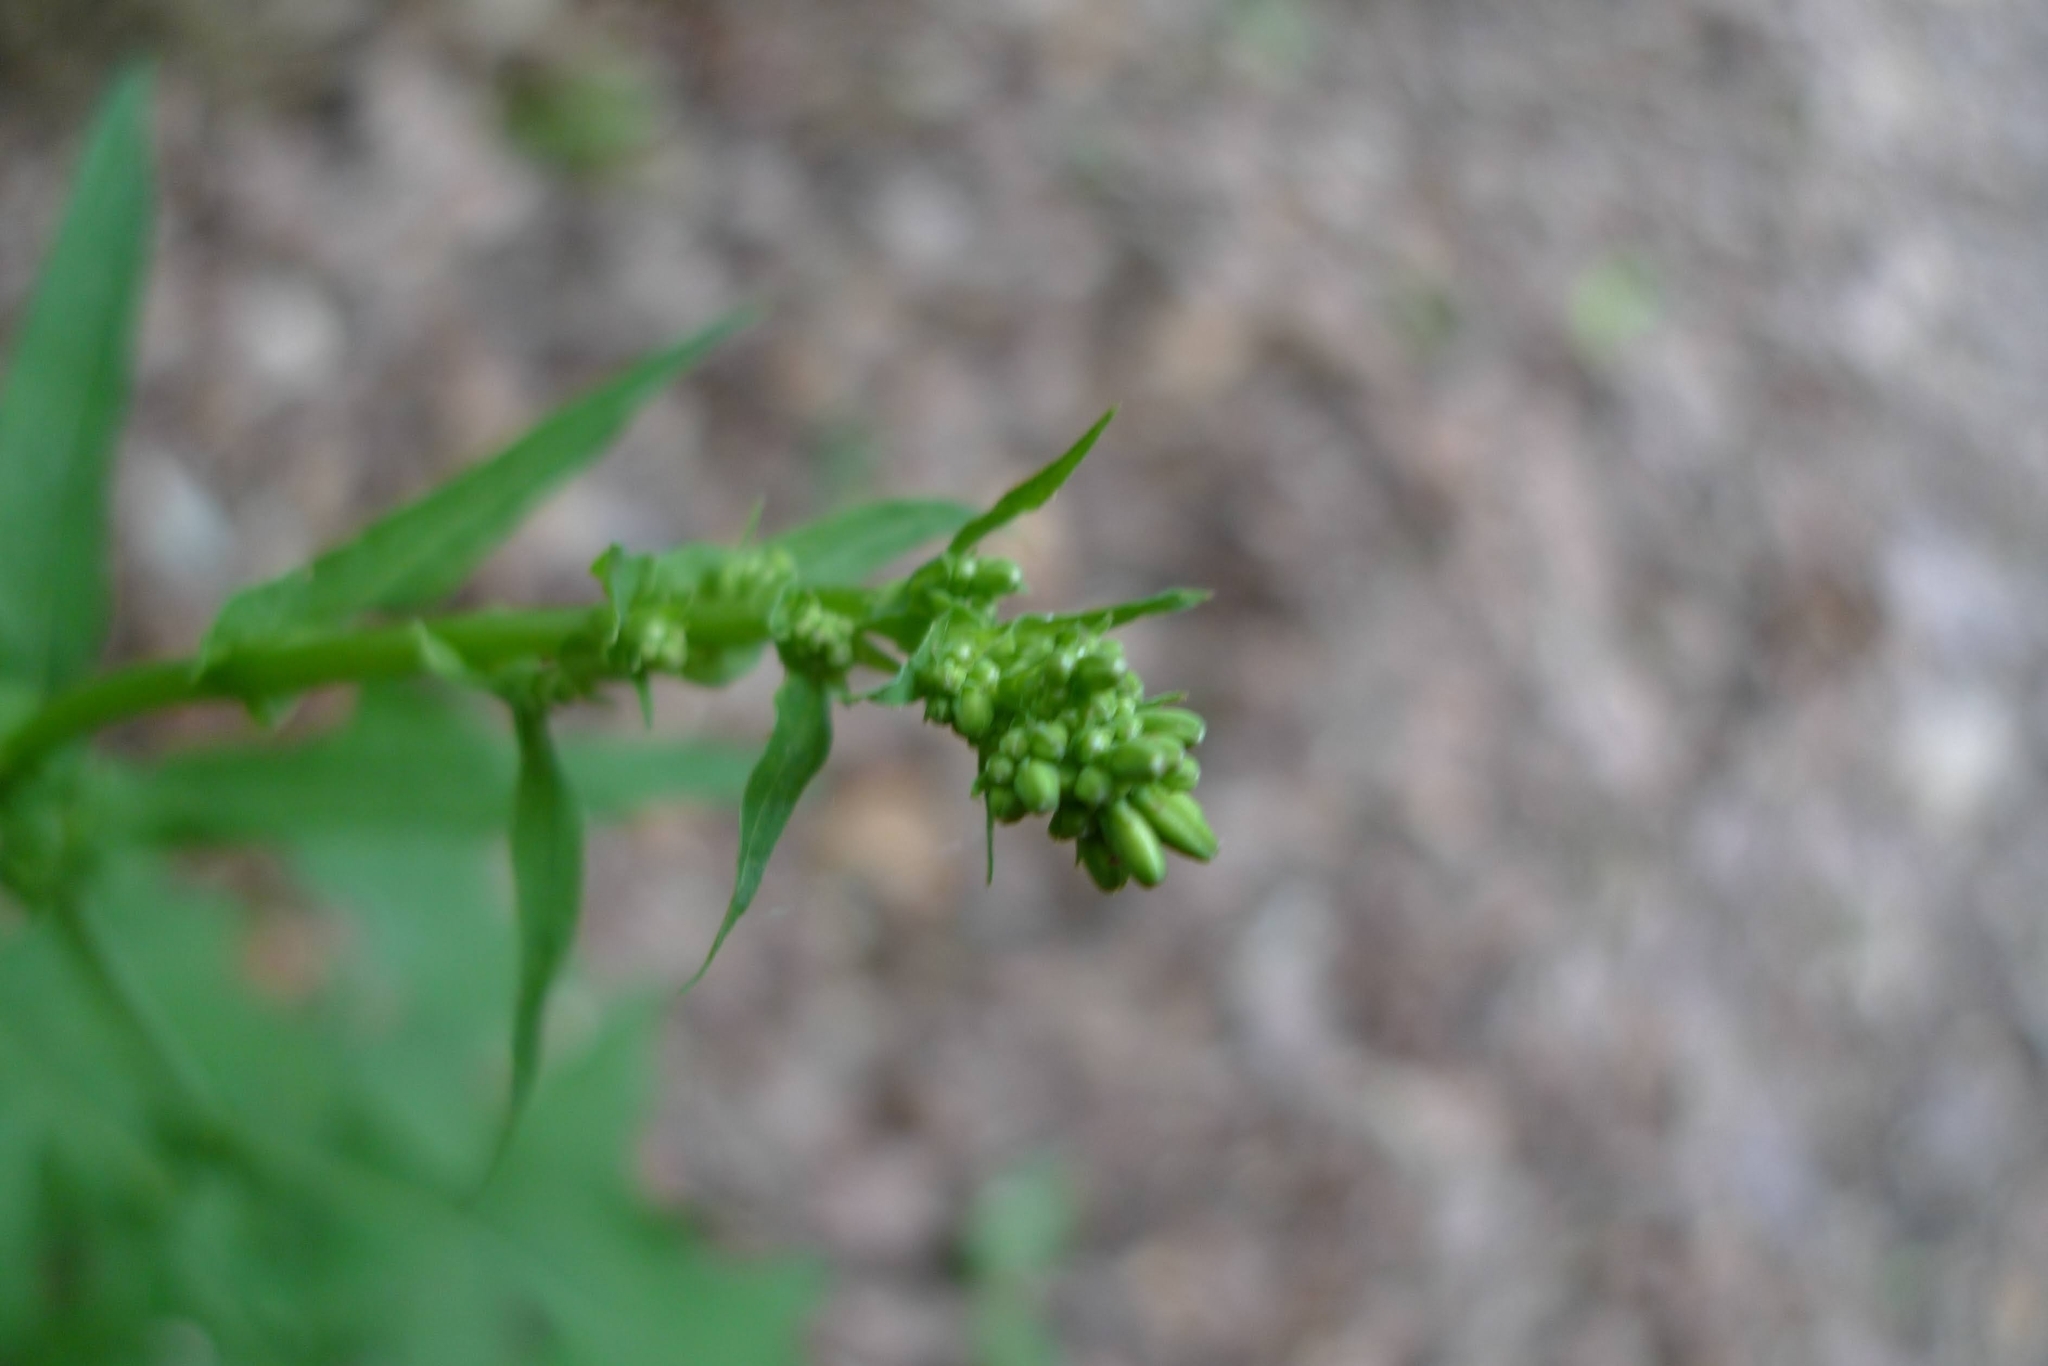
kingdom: Plantae
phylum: Tracheophyta
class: Magnoliopsida
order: Asterales
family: Asteraceae
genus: Mycelis
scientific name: Mycelis muralis
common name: Wall lettuce
